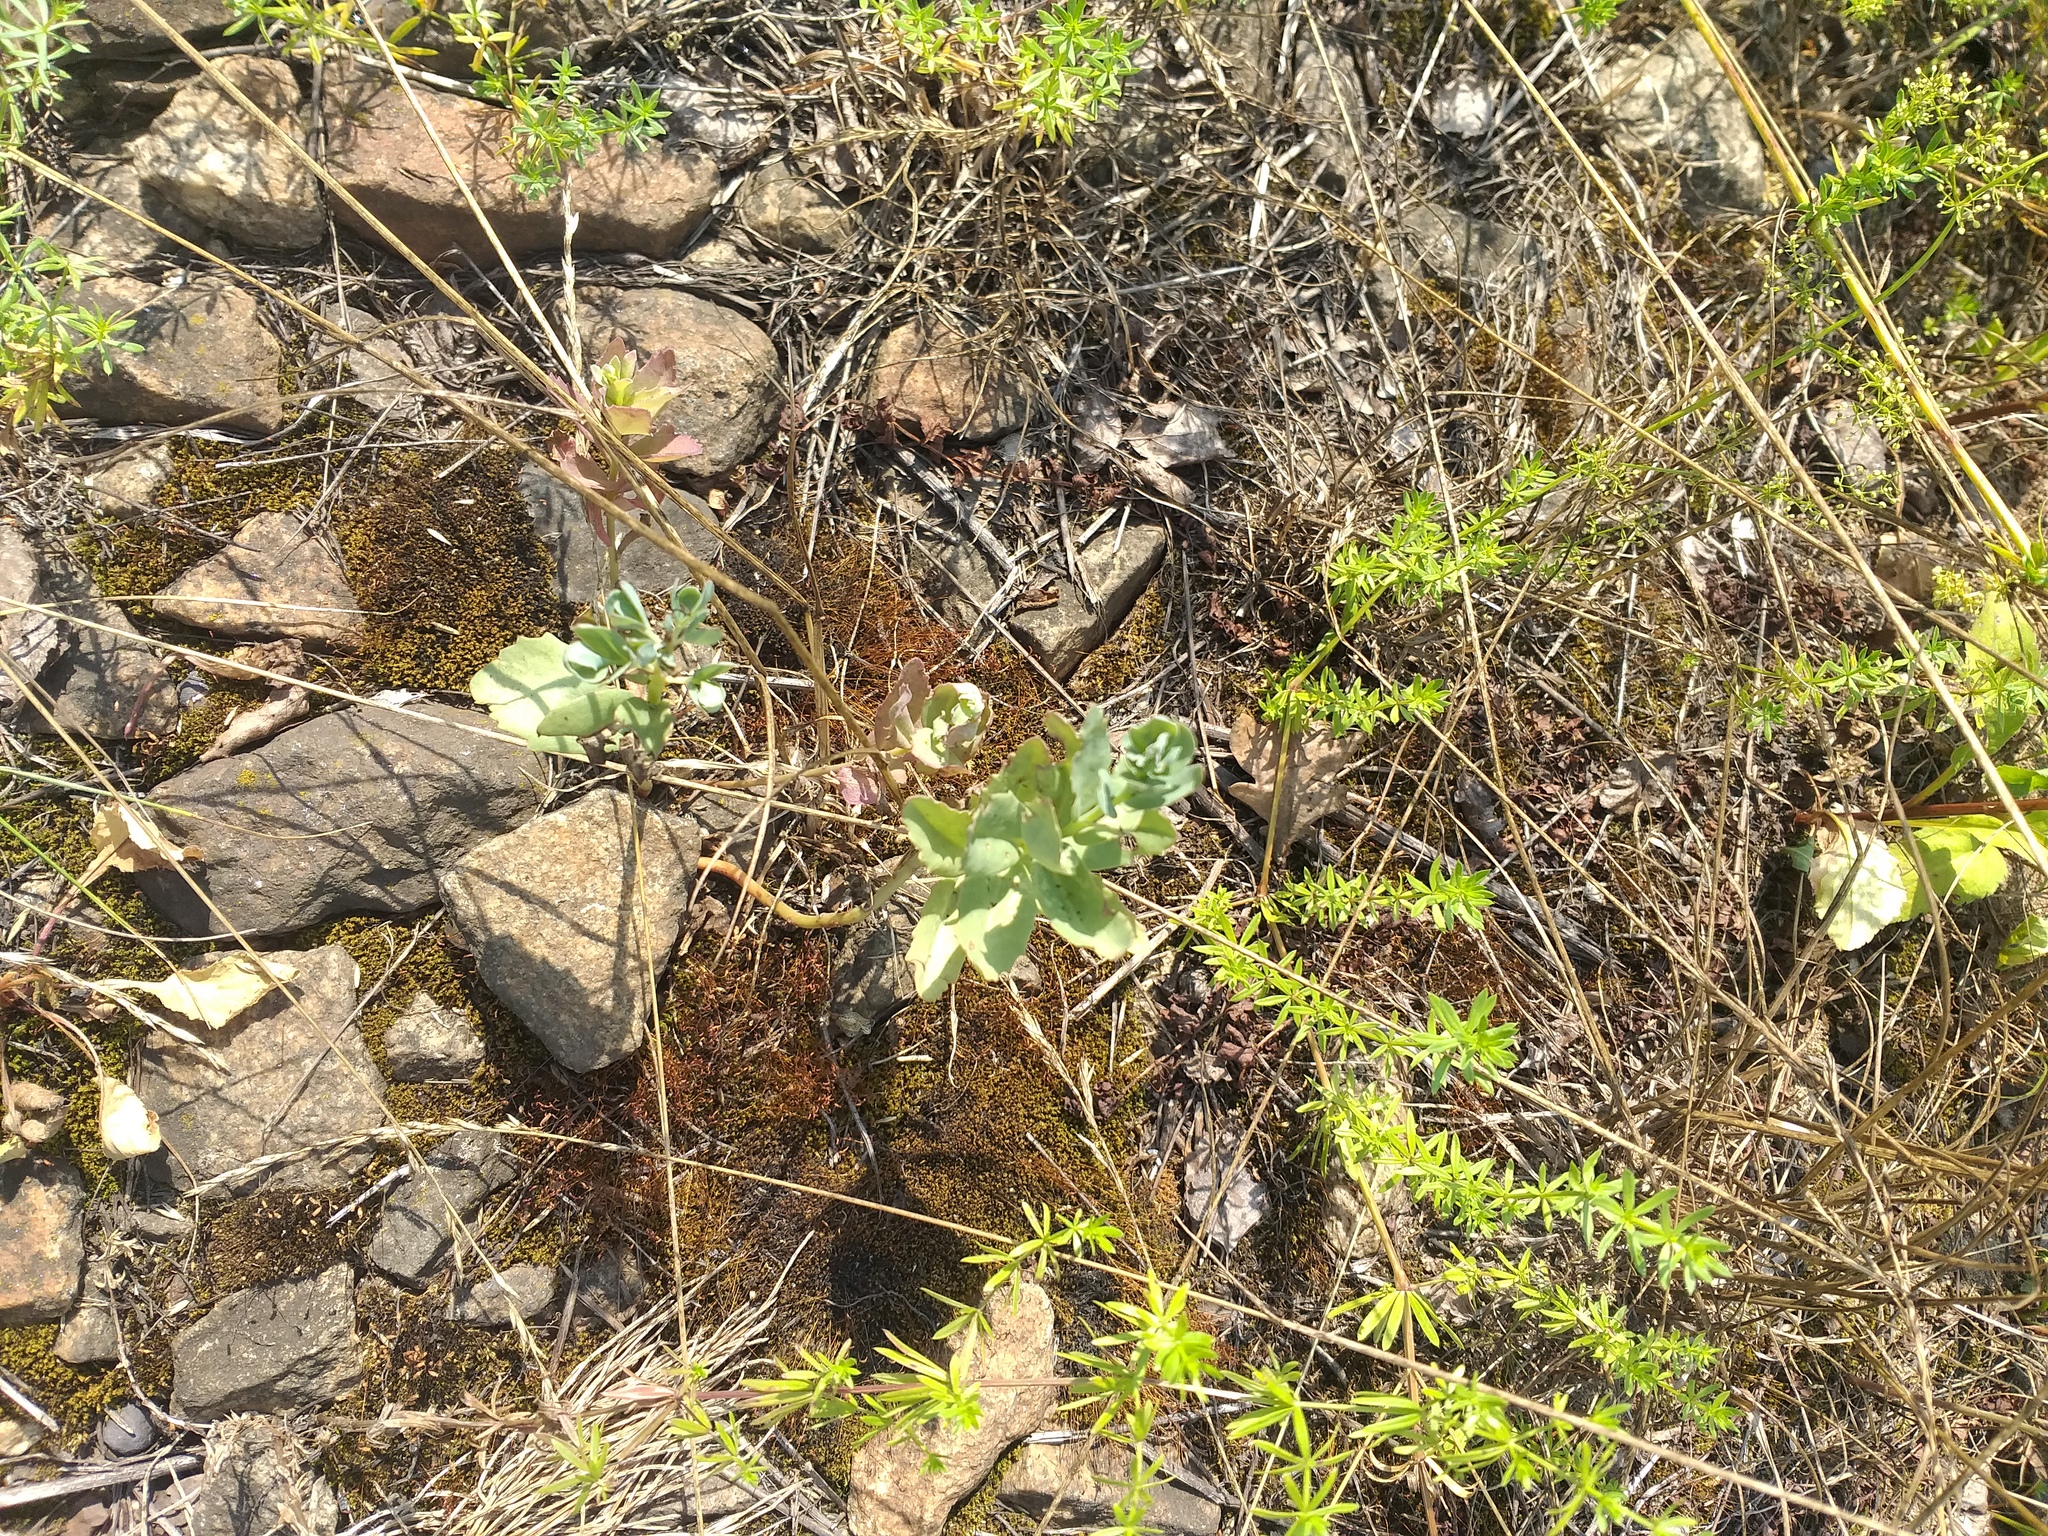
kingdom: Plantae
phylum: Tracheophyta
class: Magnoliopsida
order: Saxifragales
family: Crassulaceae
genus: Hylotelephium
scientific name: Hylotelephium telephium
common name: Live-forever
